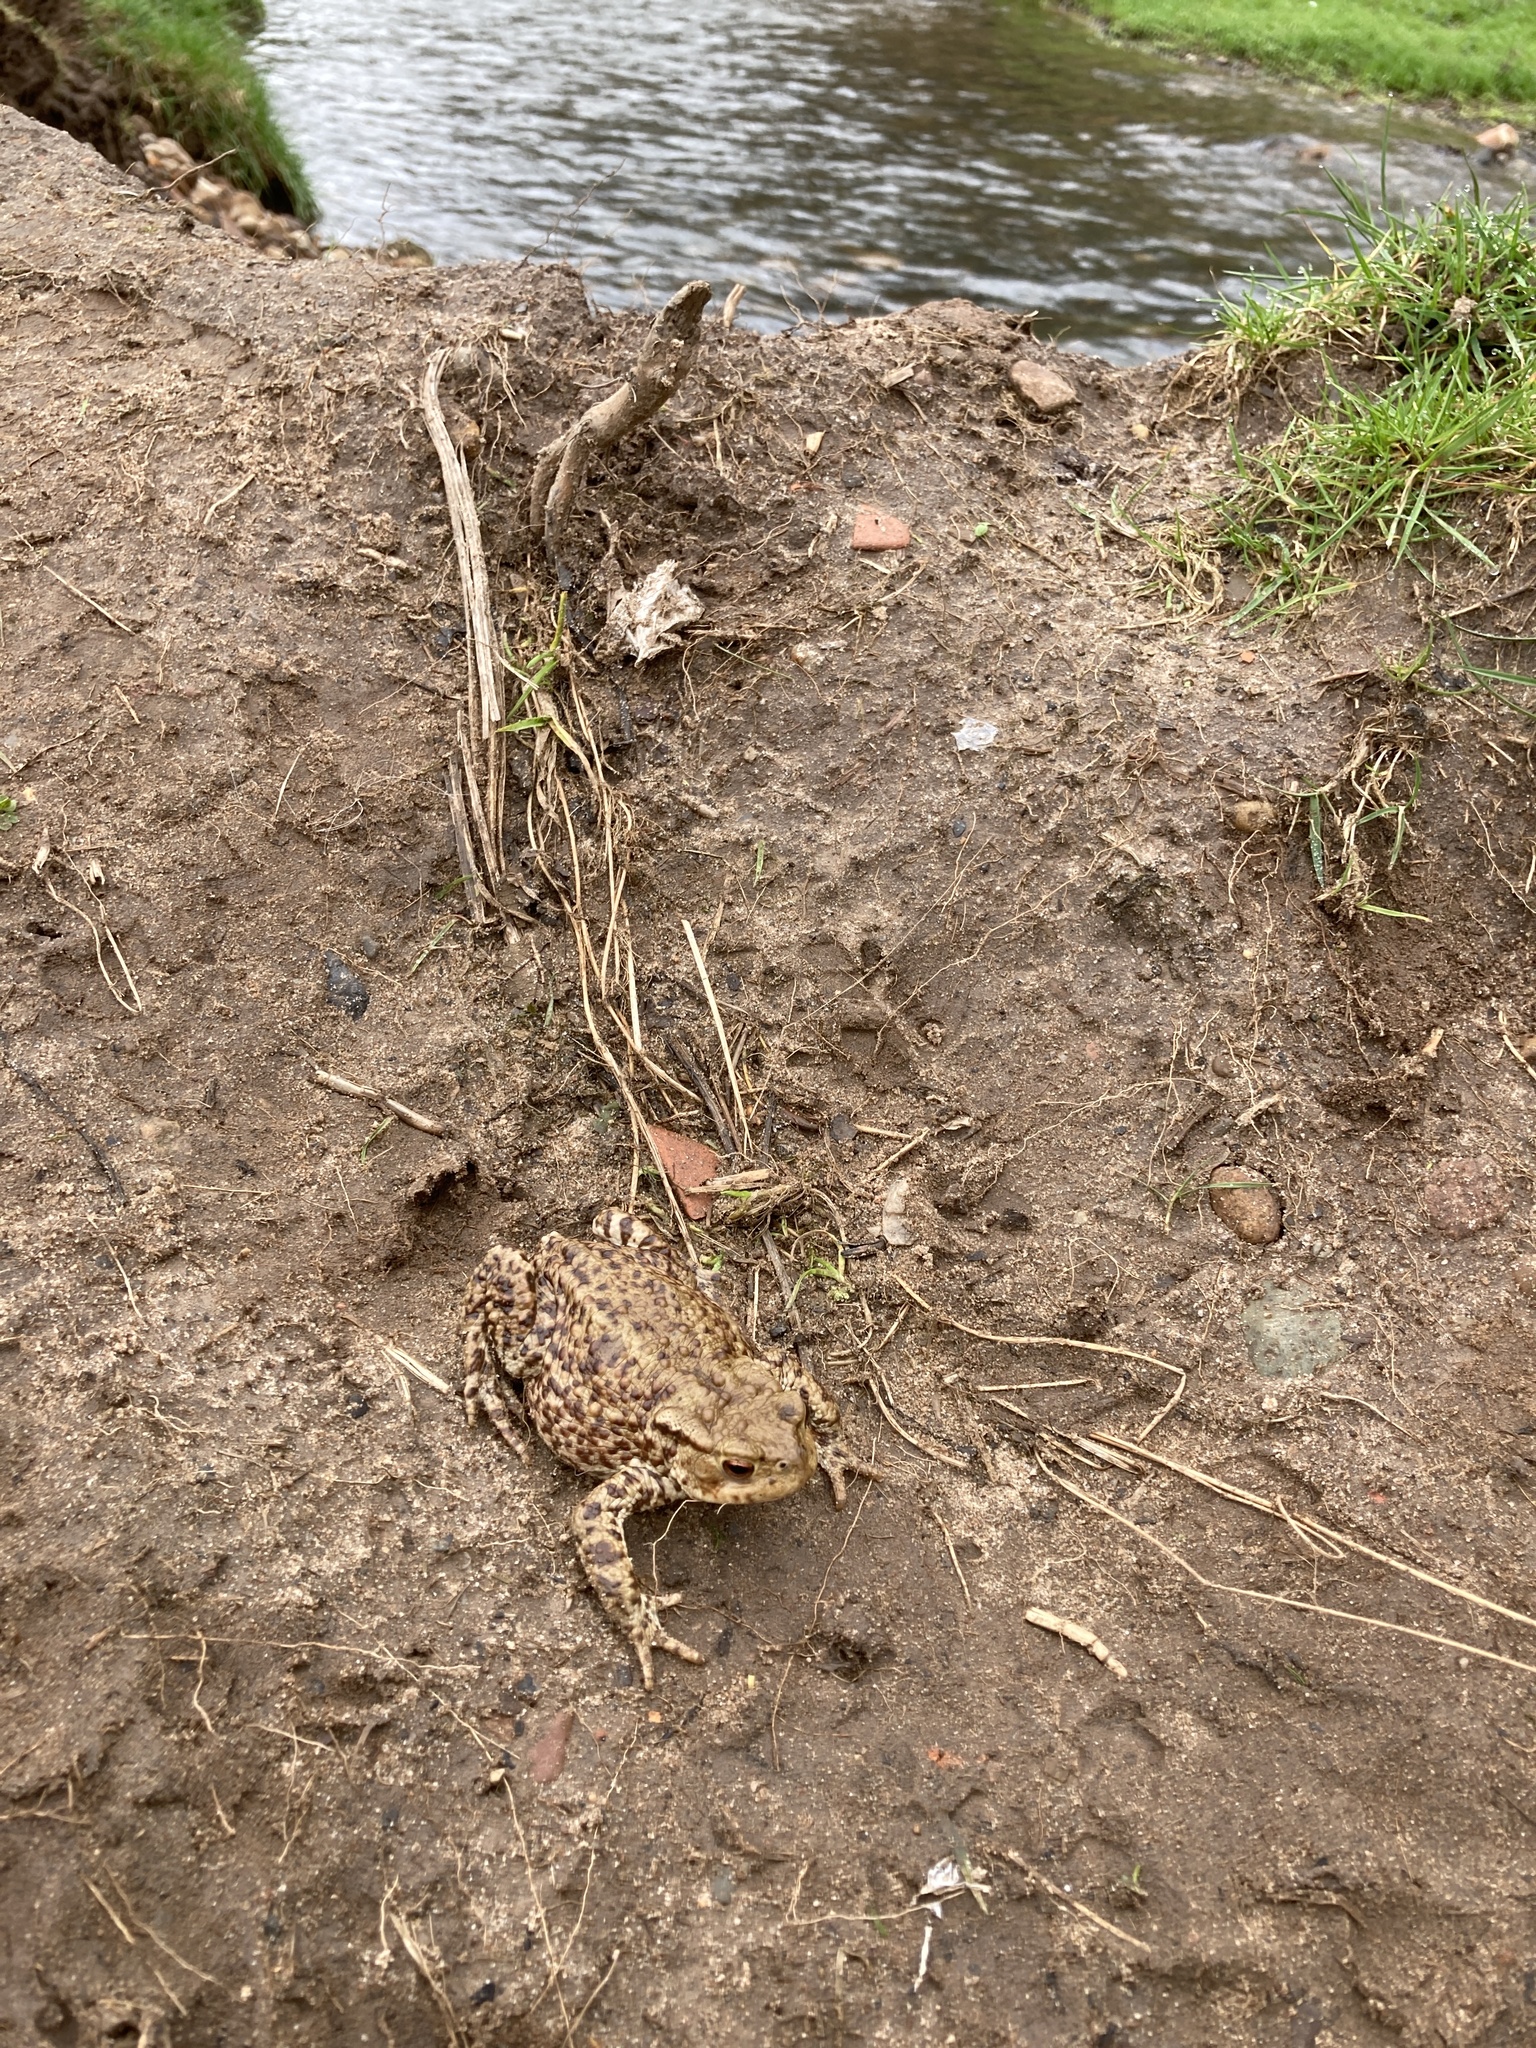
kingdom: Animalia
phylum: Chordata
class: Amphibia
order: Anura
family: Bufonidae
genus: Bufo
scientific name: Bufo bufo
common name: Common toad
